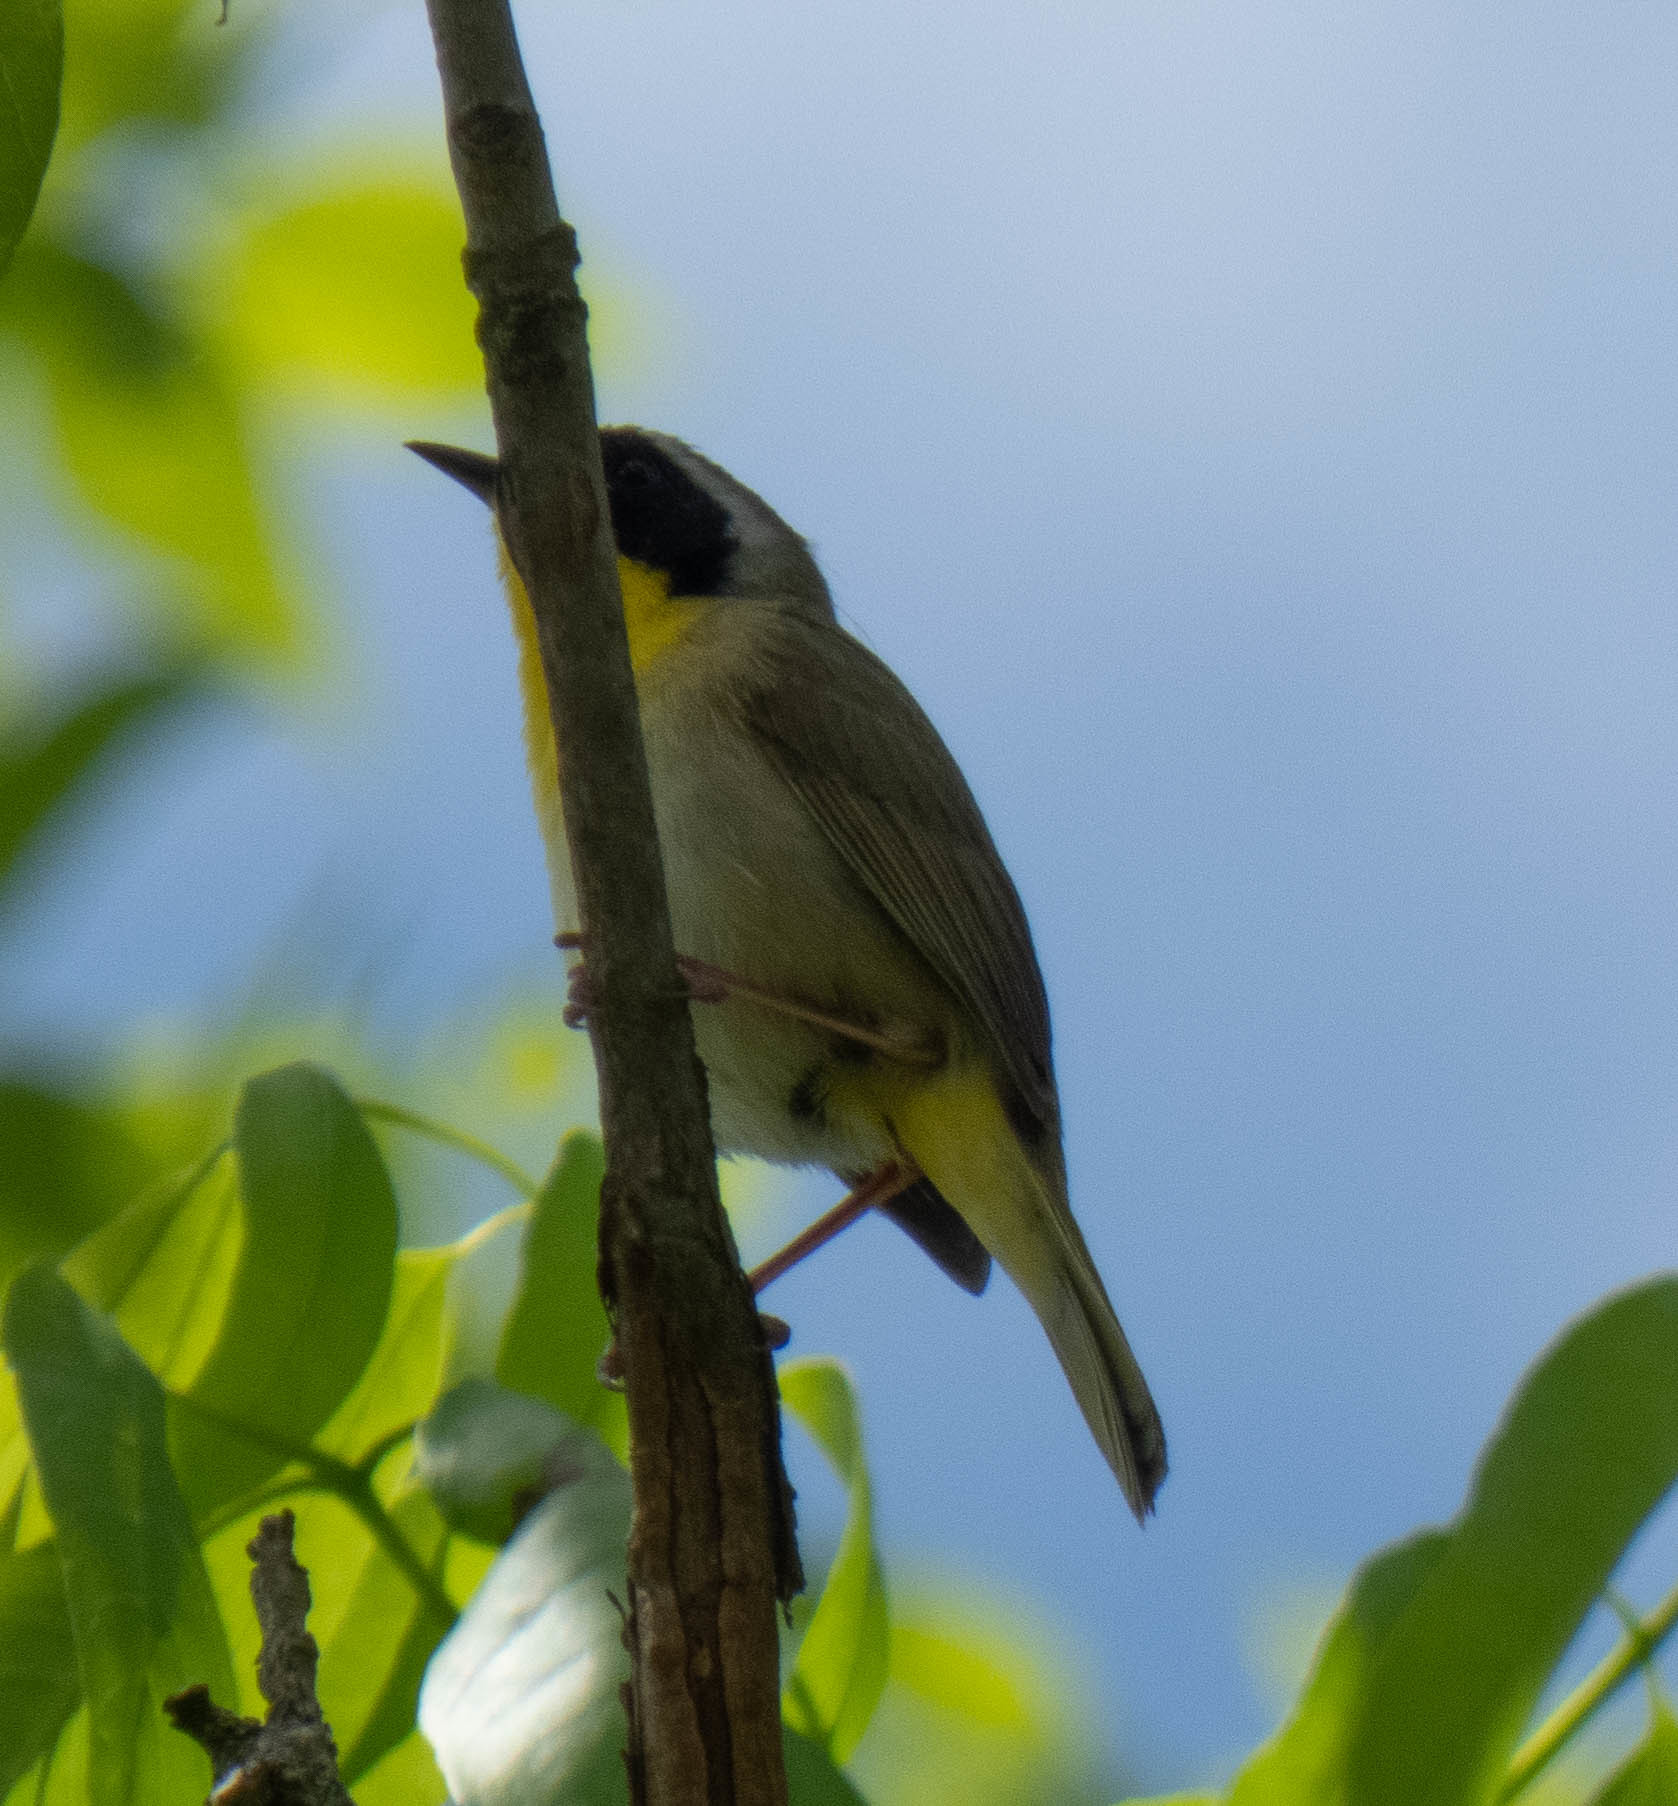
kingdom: Animalia
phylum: Chordata
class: Aves
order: Passeriformes
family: Parulidae
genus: Geothlypis
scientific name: Geothlypis trichas
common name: Common yellowthroat
